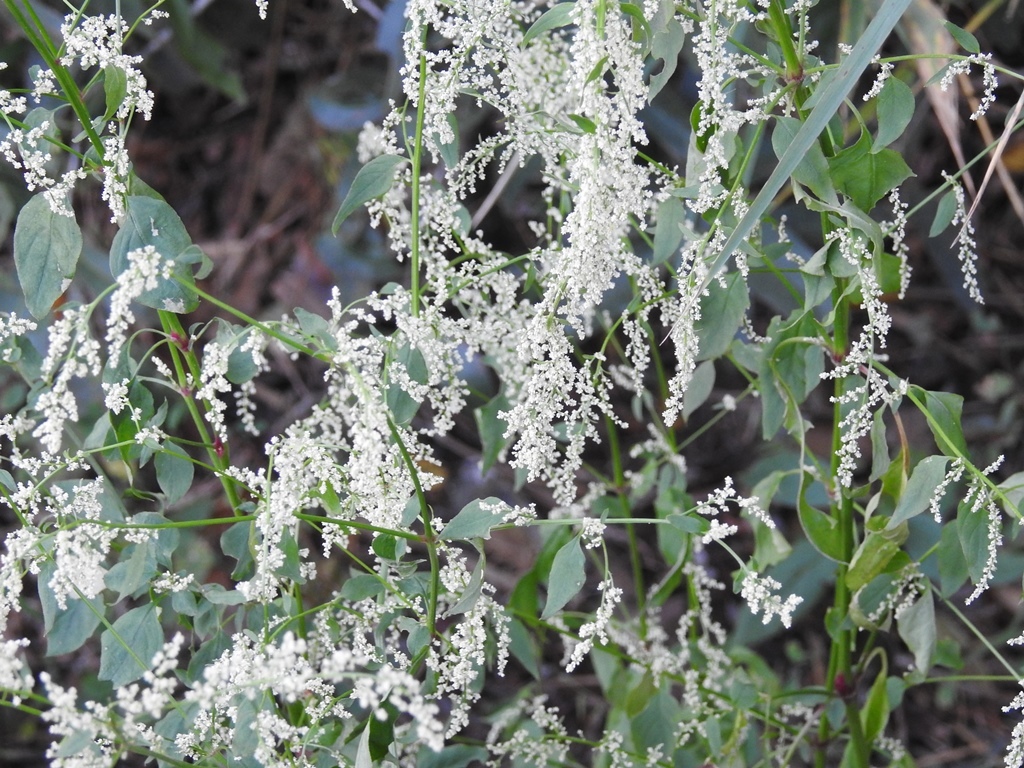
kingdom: Plantae
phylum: Tracheophyta
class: Magnoliopsida
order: Caryophyllales
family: Amaranthaceae
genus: Iresine
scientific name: Iresine rhizomatosa
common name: Juda's-bush
